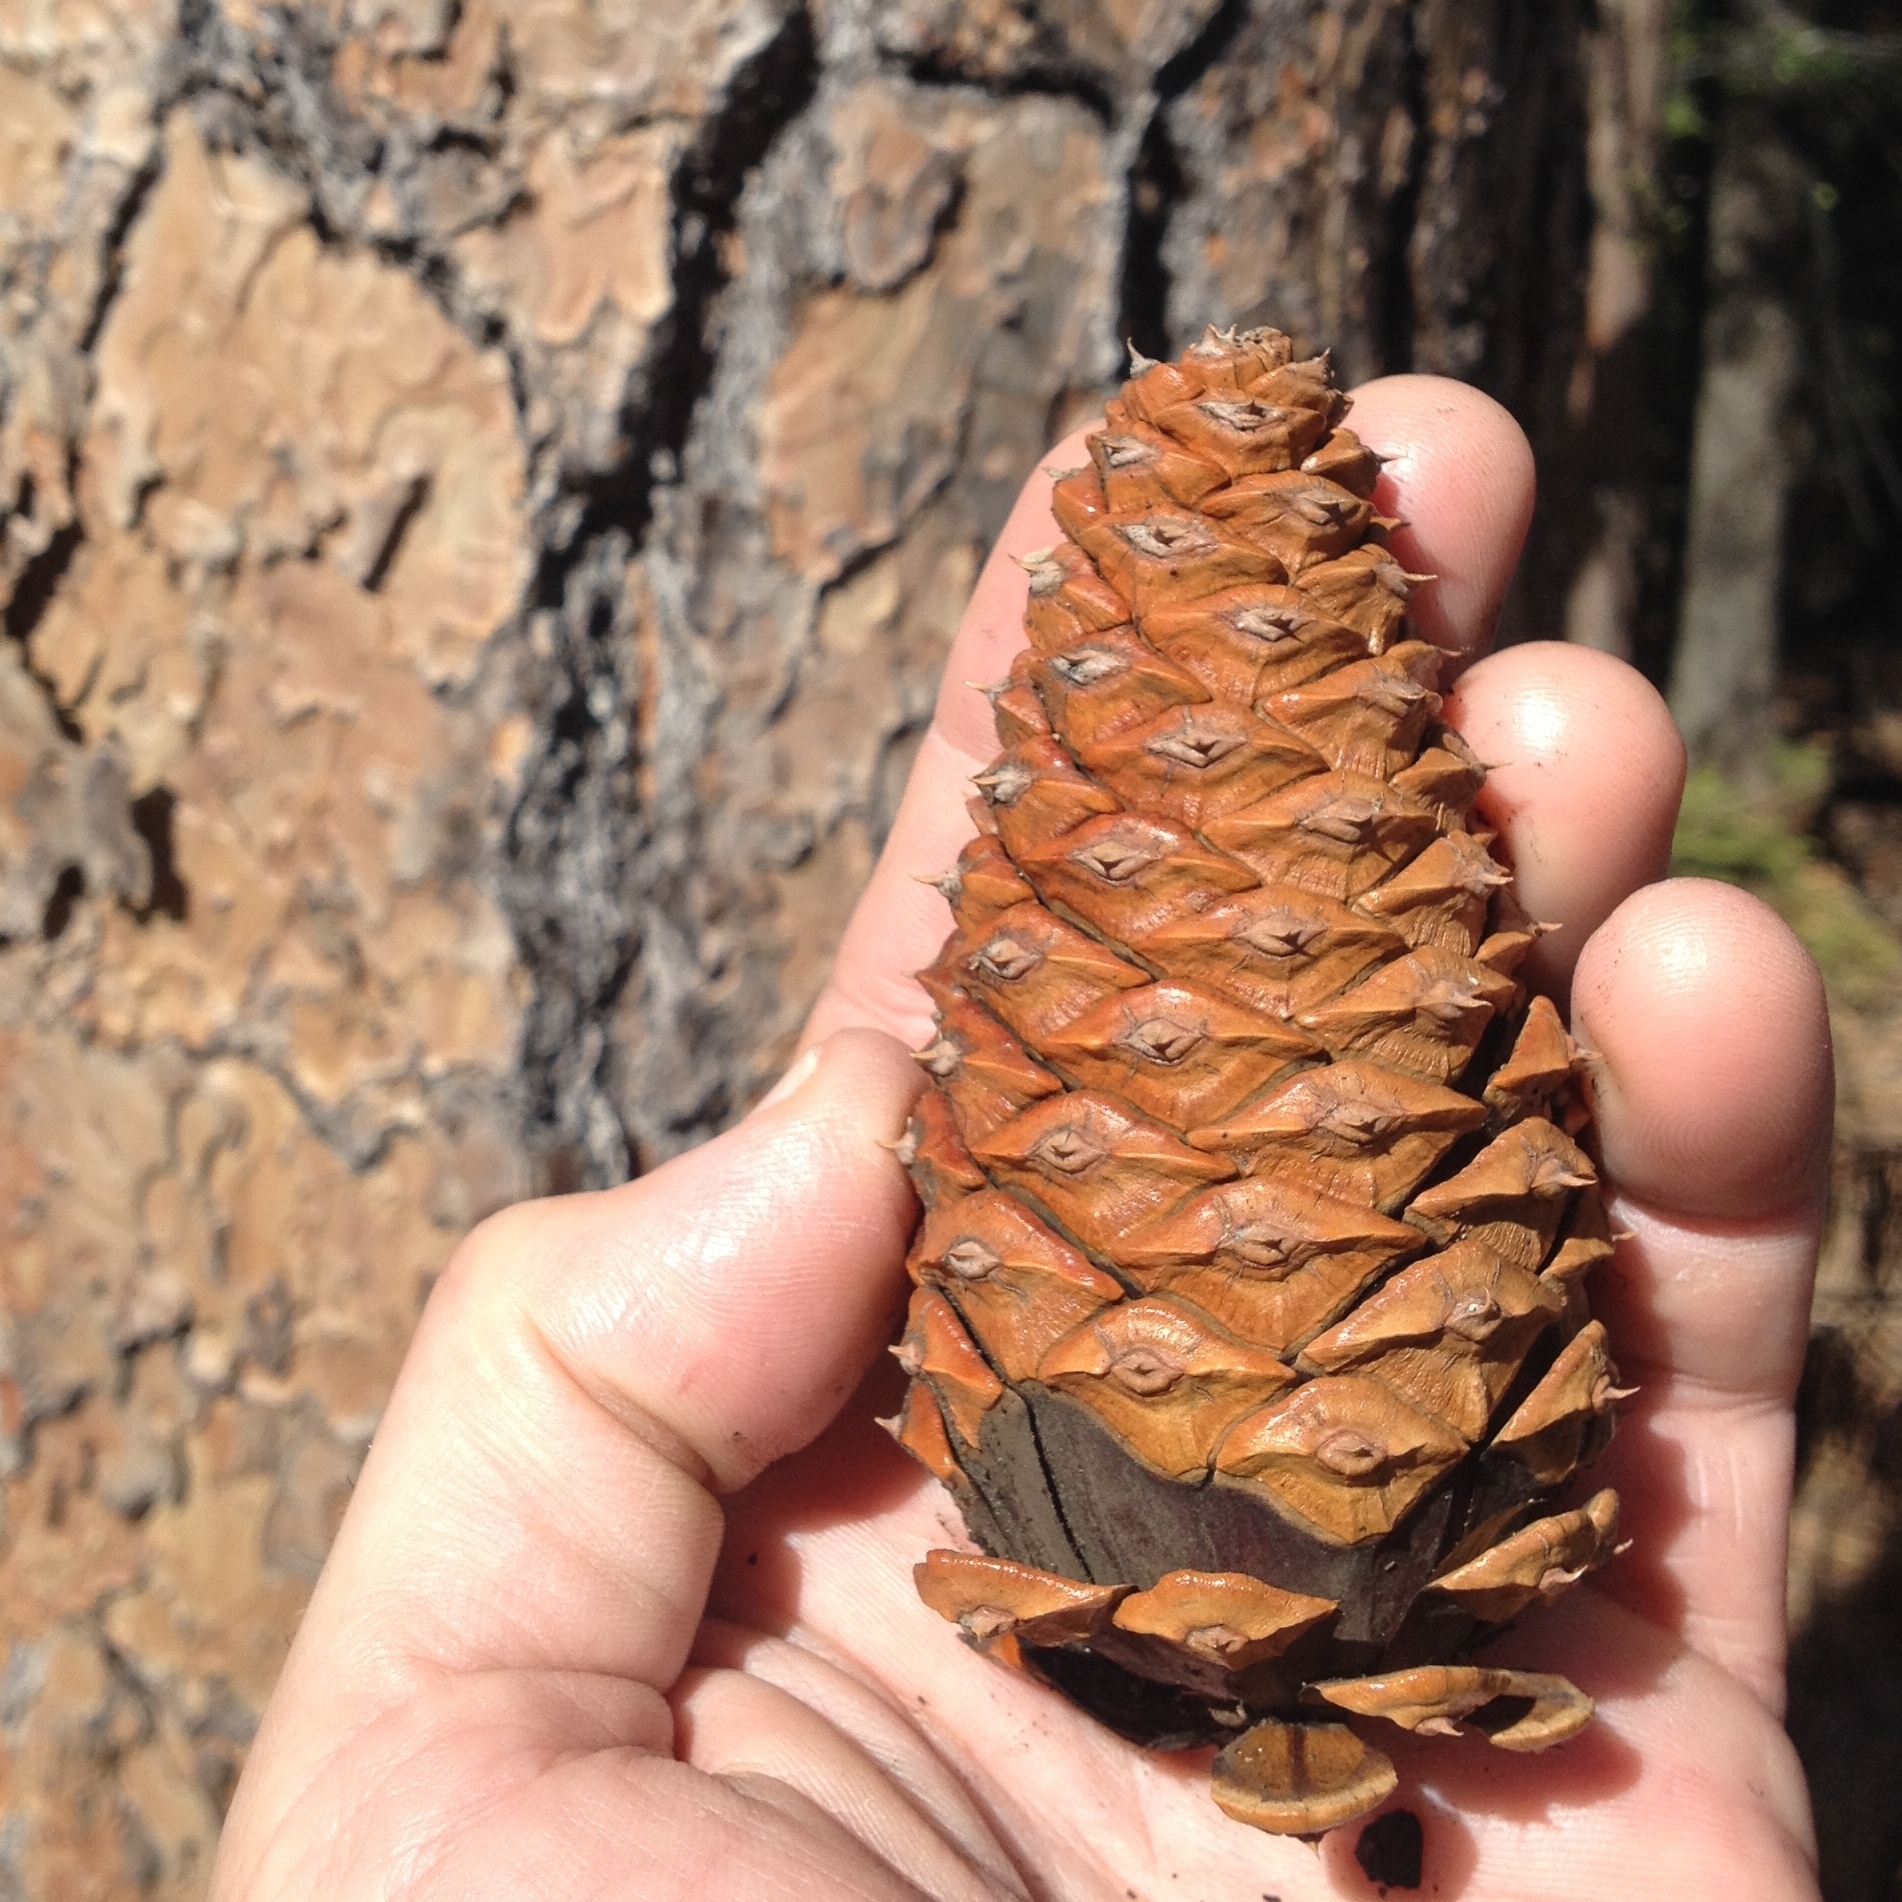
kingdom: Plantae
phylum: Tracheophyta
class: Pinopsida
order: Pinales
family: Pinaceae
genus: Pinus
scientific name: Pinus ponderosa
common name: Western yellow-pine
